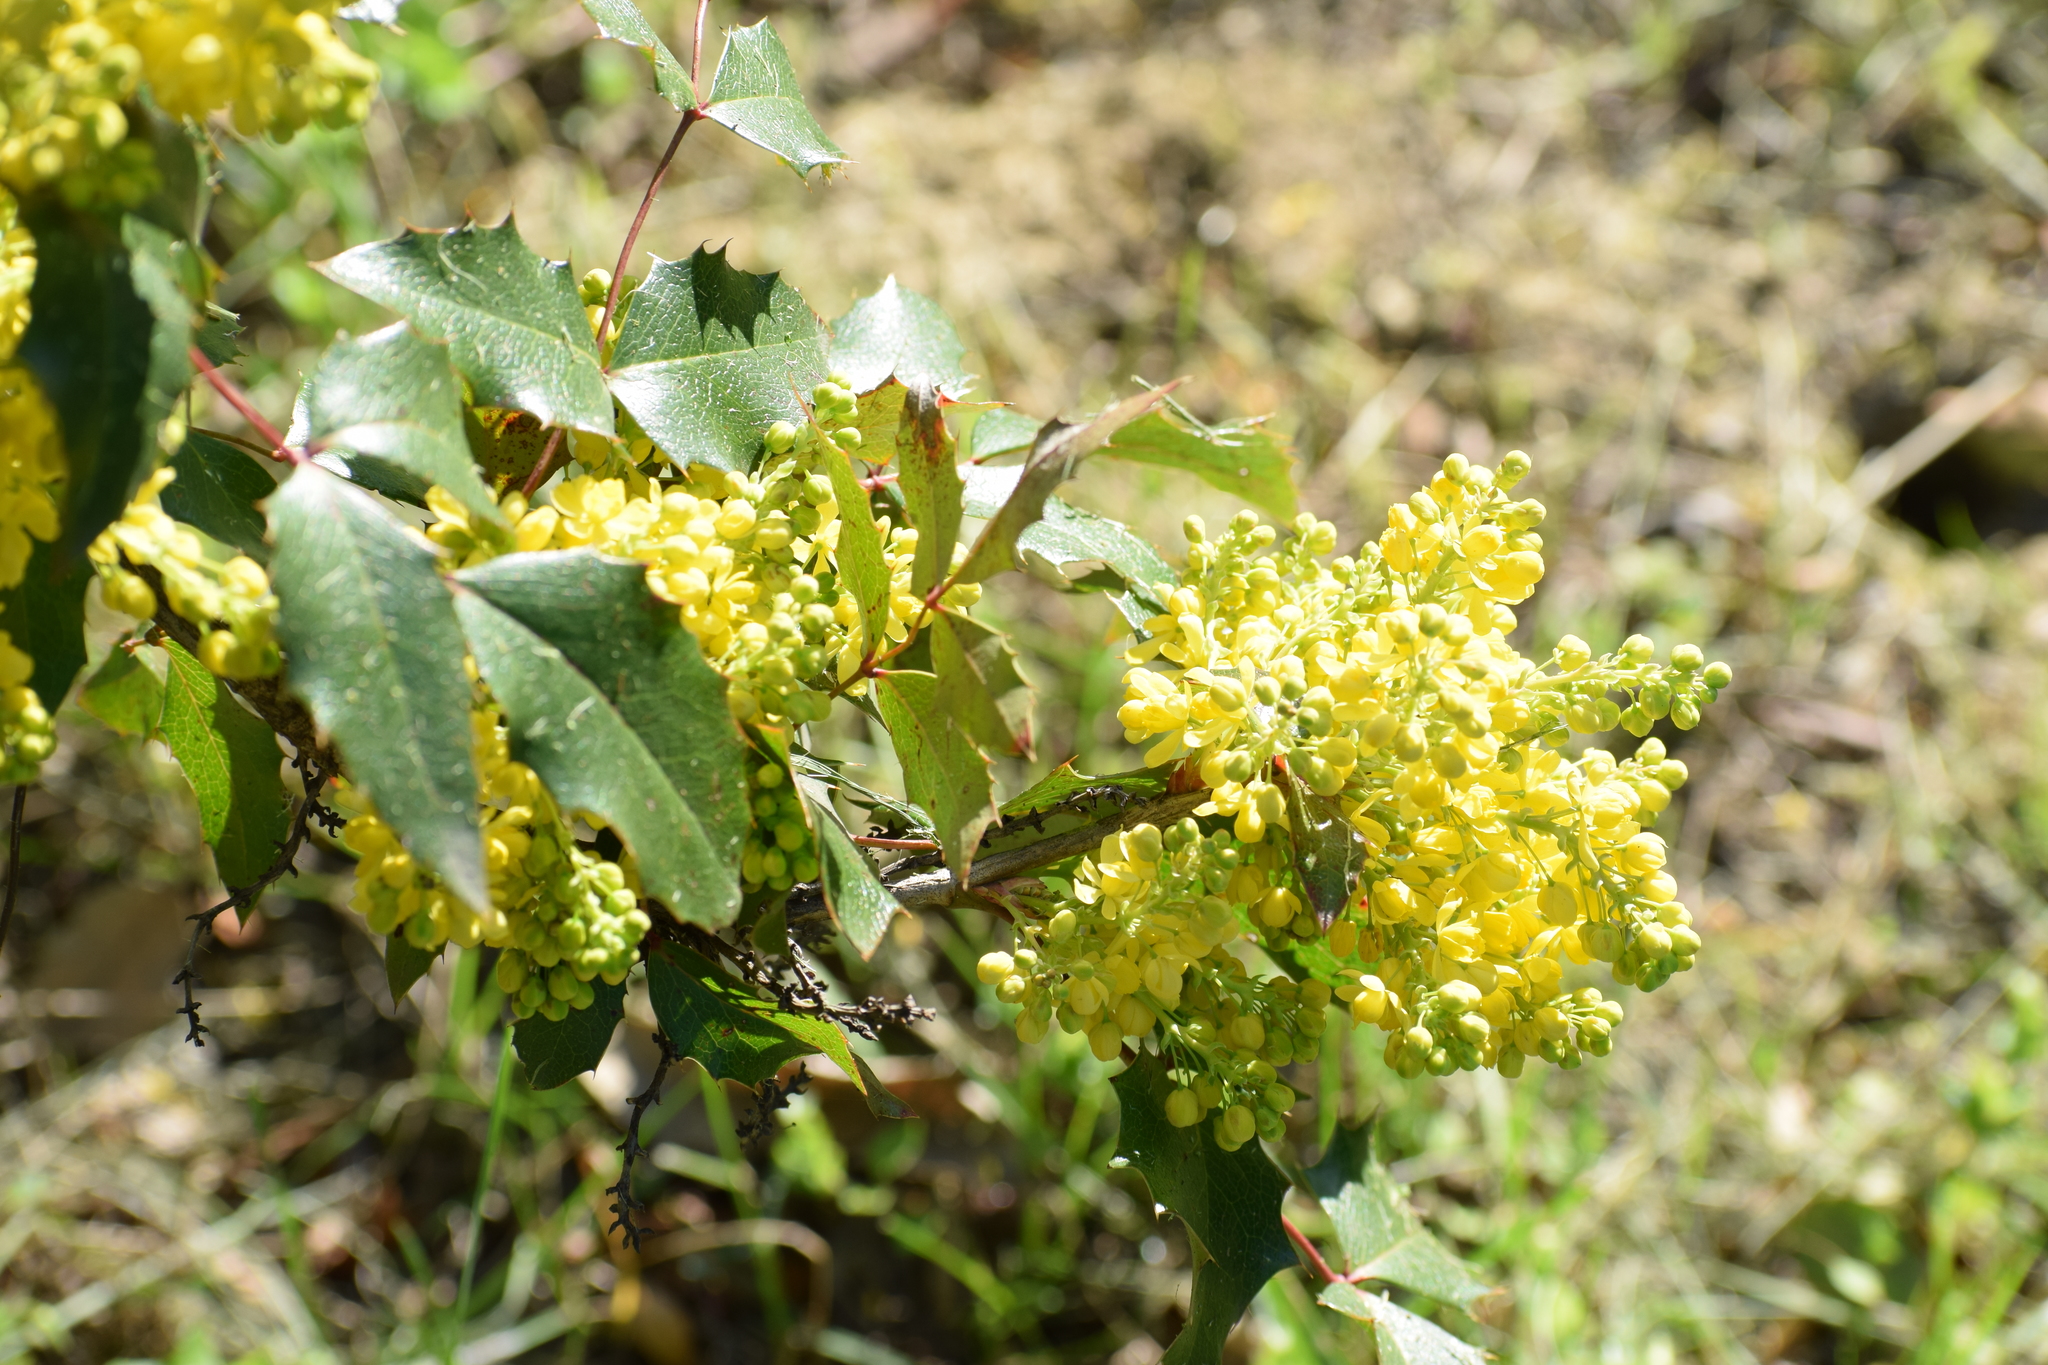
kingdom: Plantae
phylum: Tracheophyta
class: Magnoliopsida
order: Ranunculales
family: Berberidaceae
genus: Mahonia
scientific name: Mahonia aquifolium
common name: Oregon-grape
